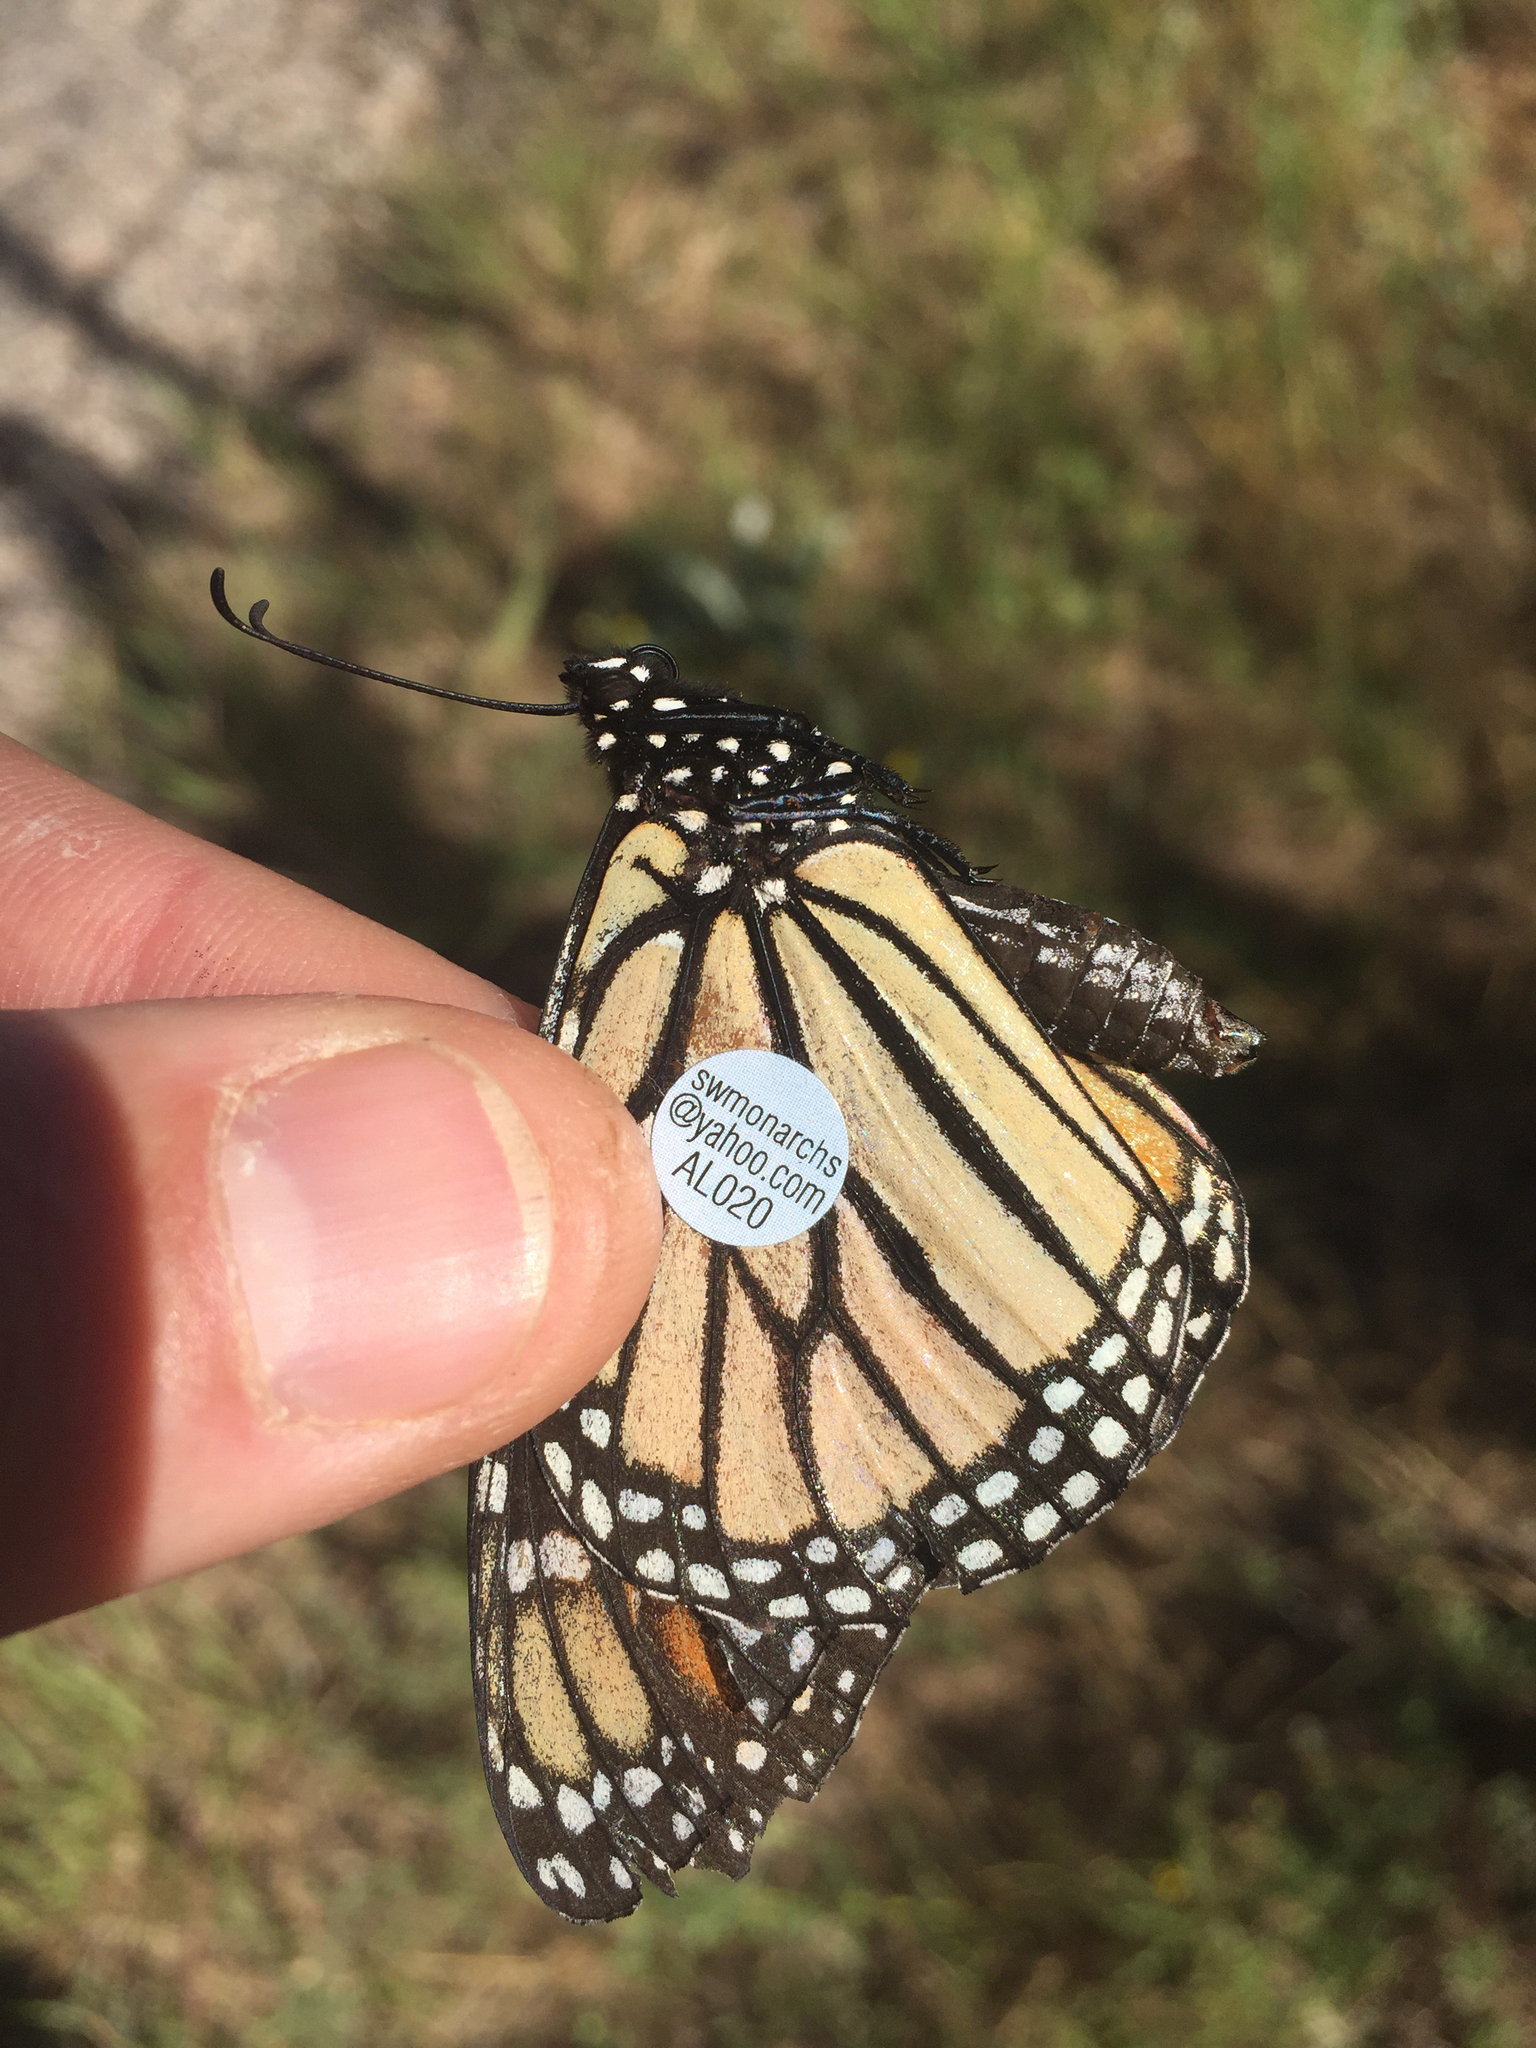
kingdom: Animalia
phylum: Arthropoda
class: Insecta
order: Lepidoptera
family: Nymphalidae
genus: Danaus
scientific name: Danaus plexippus
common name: Monarch
